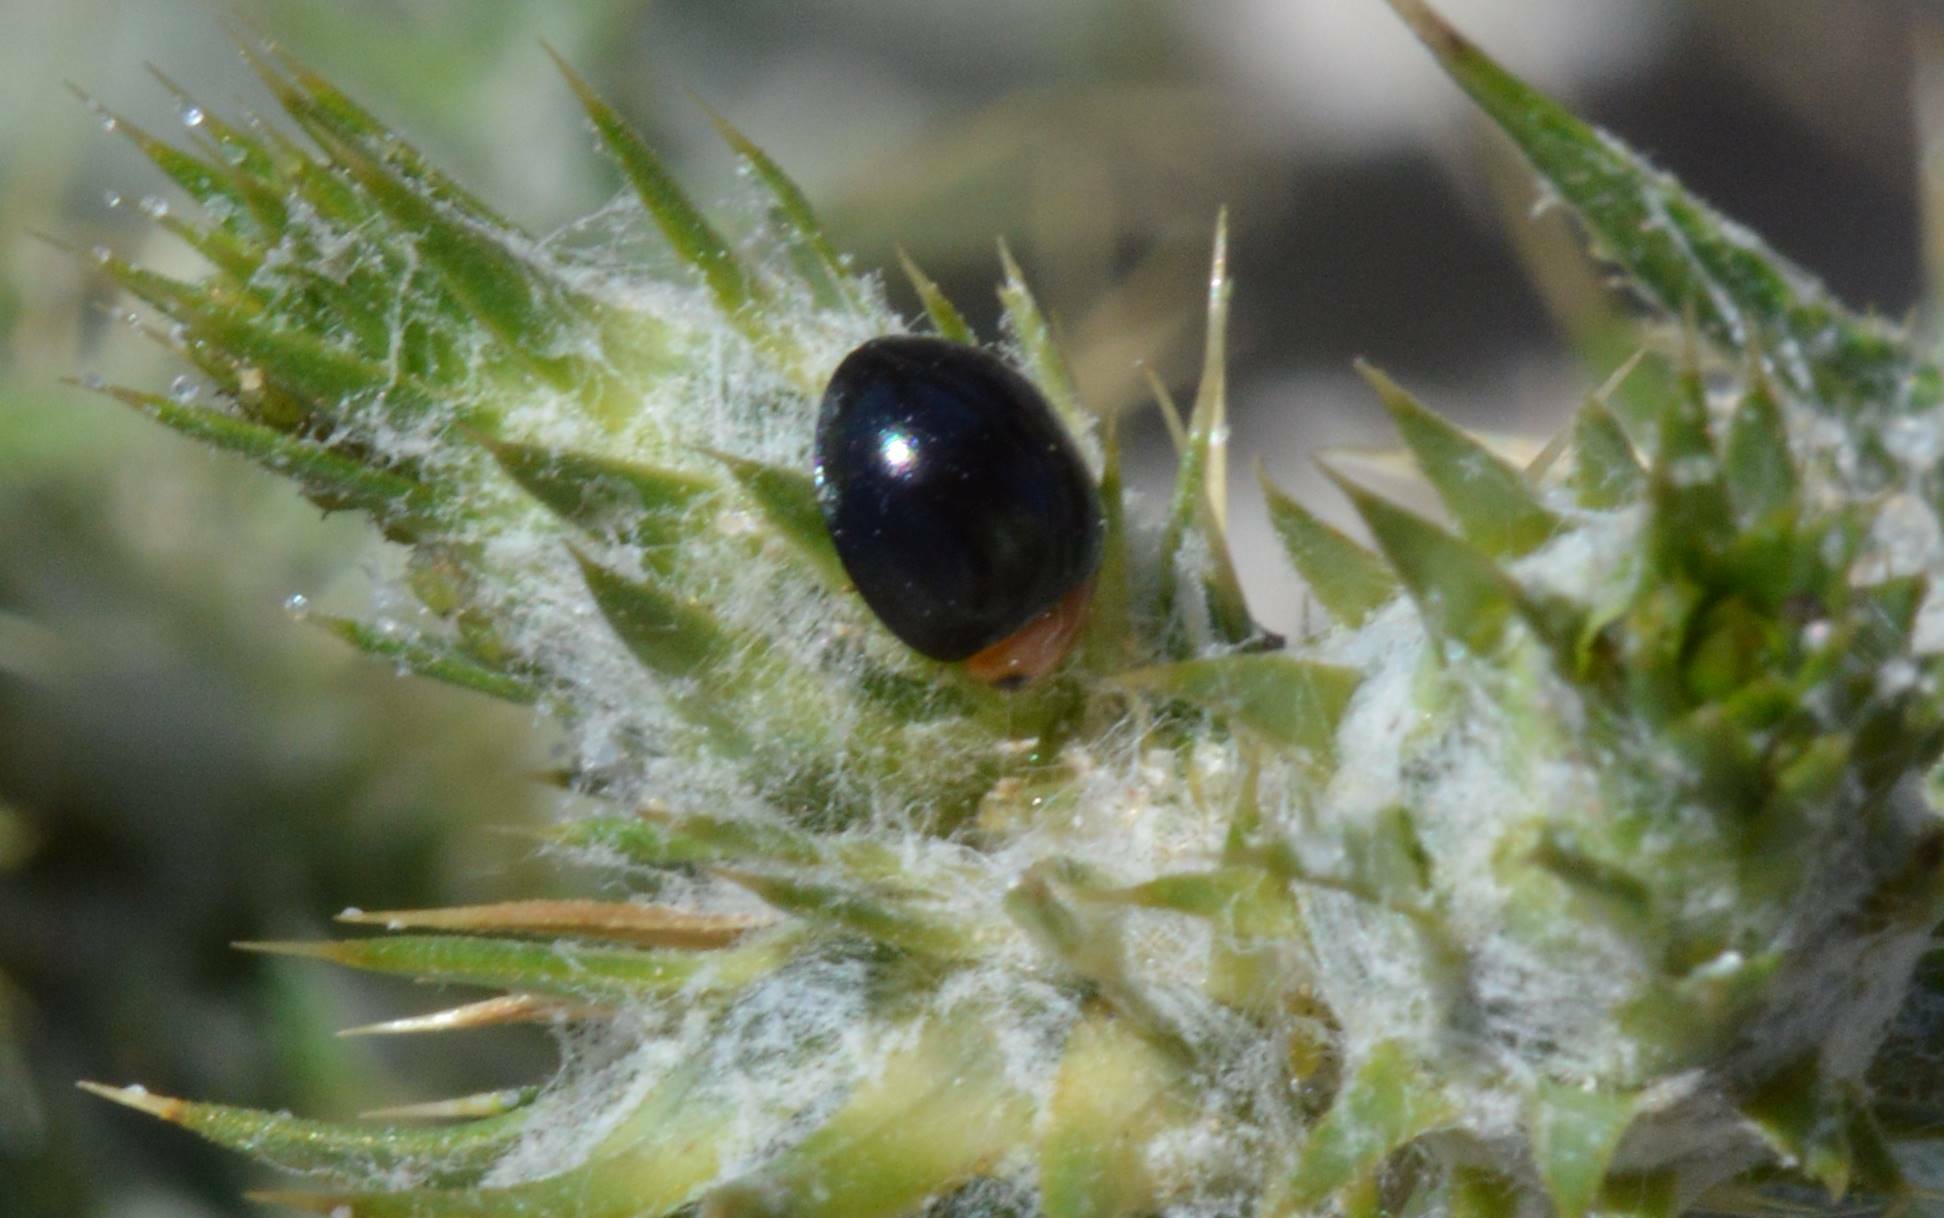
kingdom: Animalia
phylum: Arthropoda
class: Insecta
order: Coleoptera
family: Coccinellidae
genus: Exochomus
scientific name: Exochomus nigripennis
